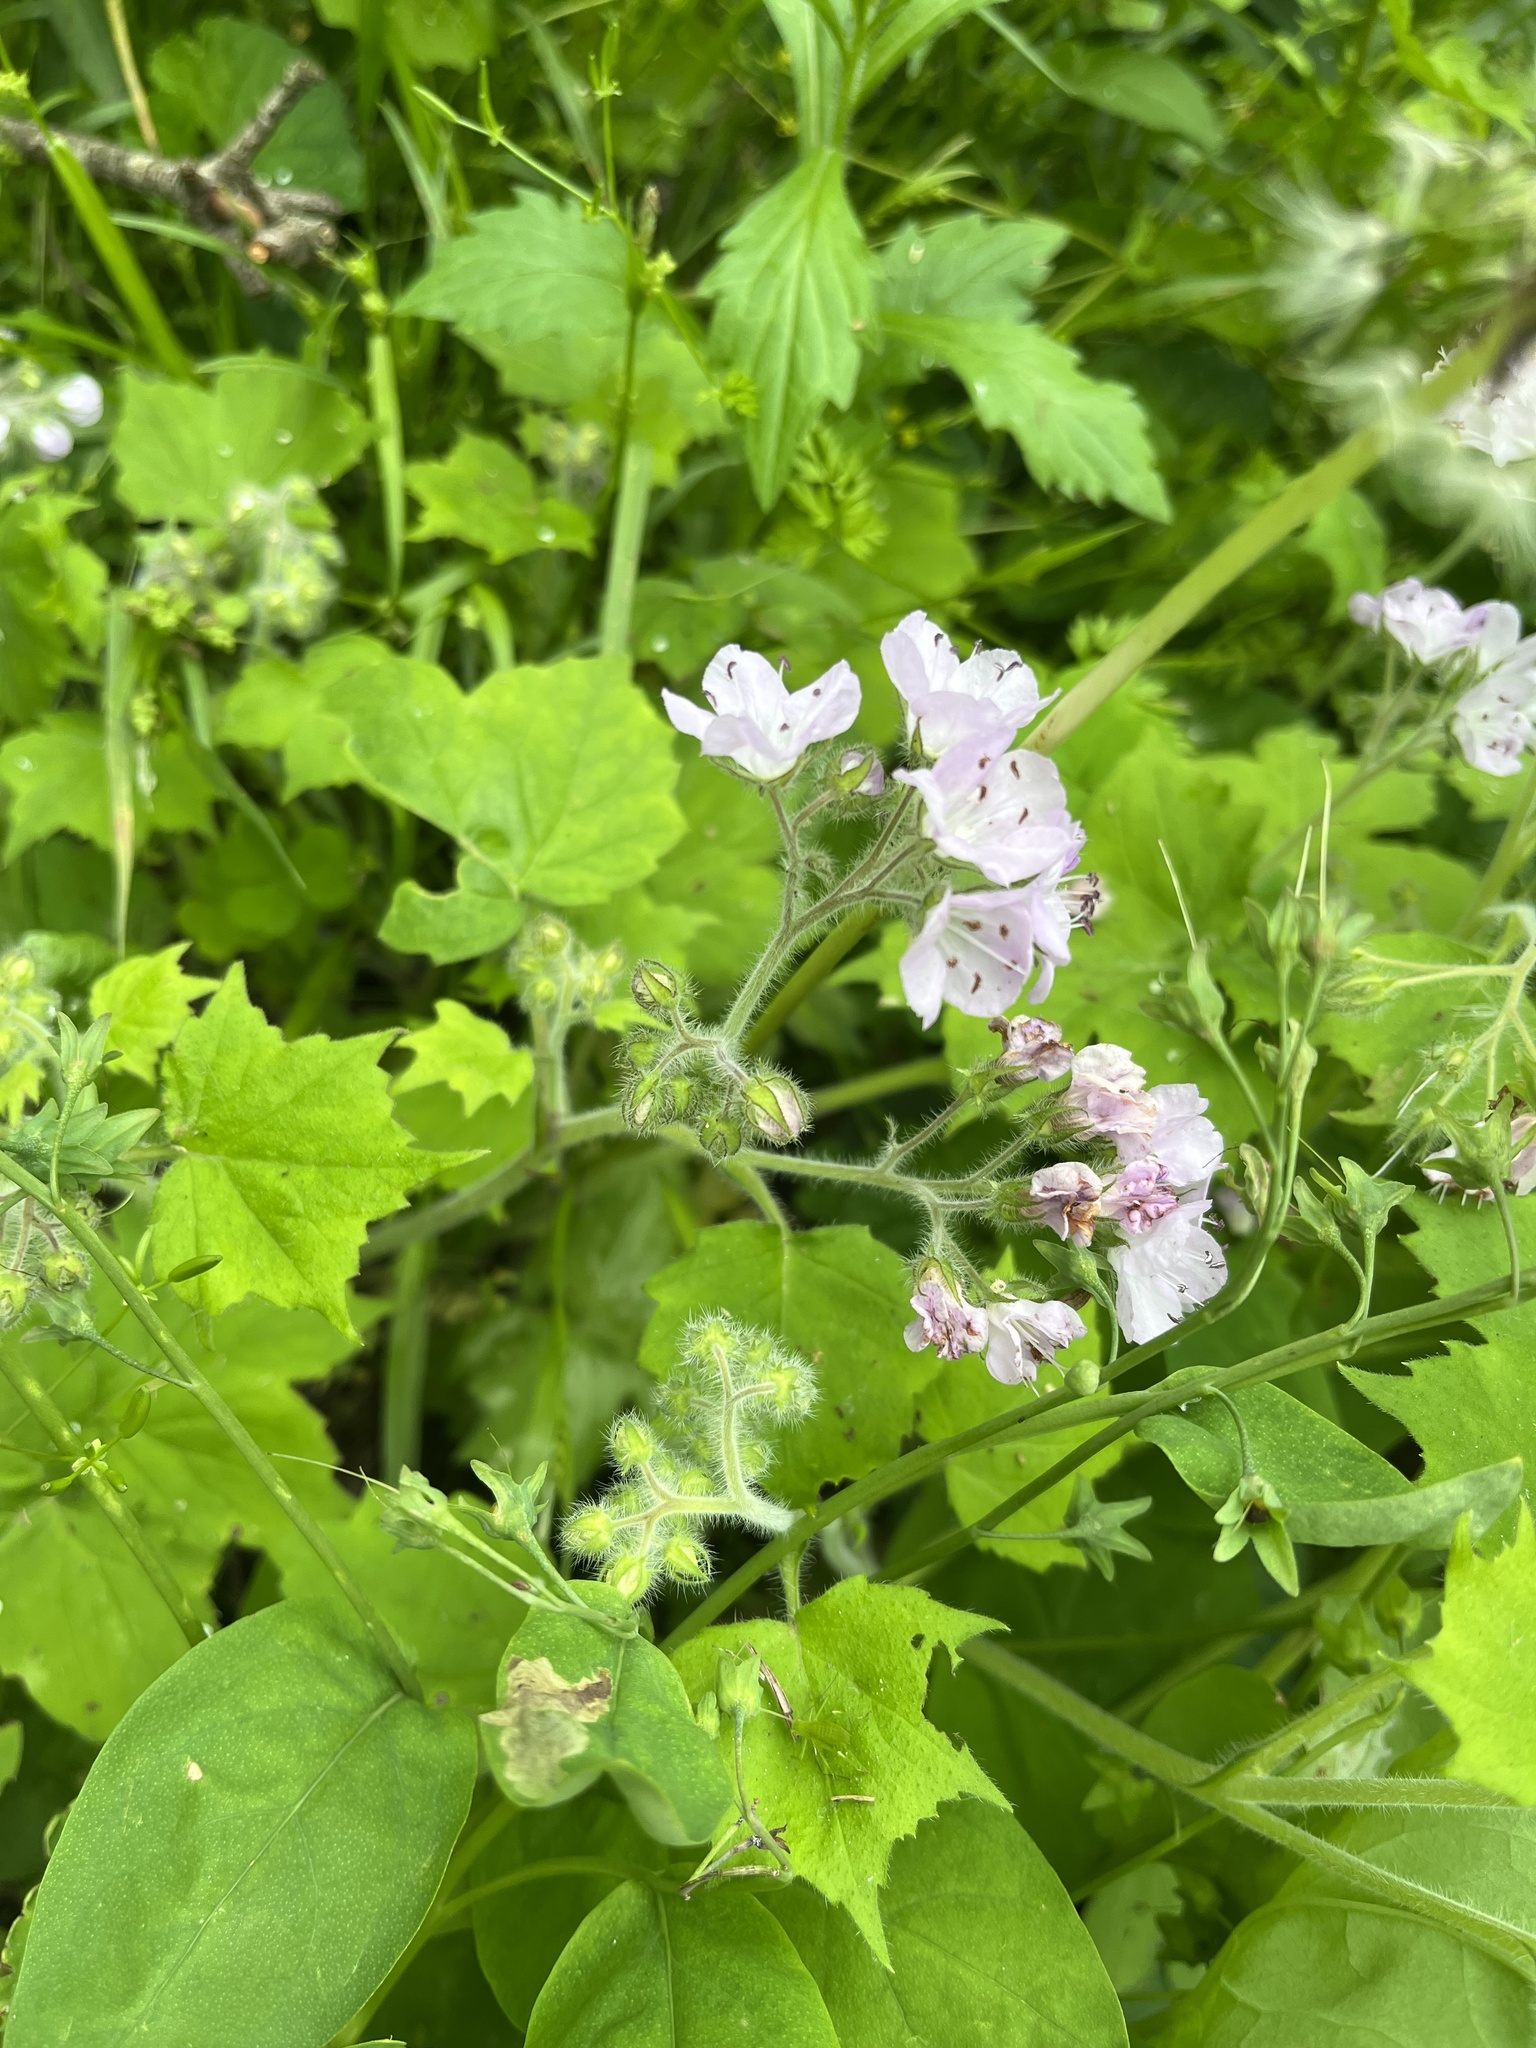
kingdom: Plantae
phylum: Tracheophyta
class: Magnoliopsida
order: Boraginales
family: Hydrophyllaceae
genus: Hydrophyllum
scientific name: Hydrophyllum appendiculatum
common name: Appendaged waterleaf
